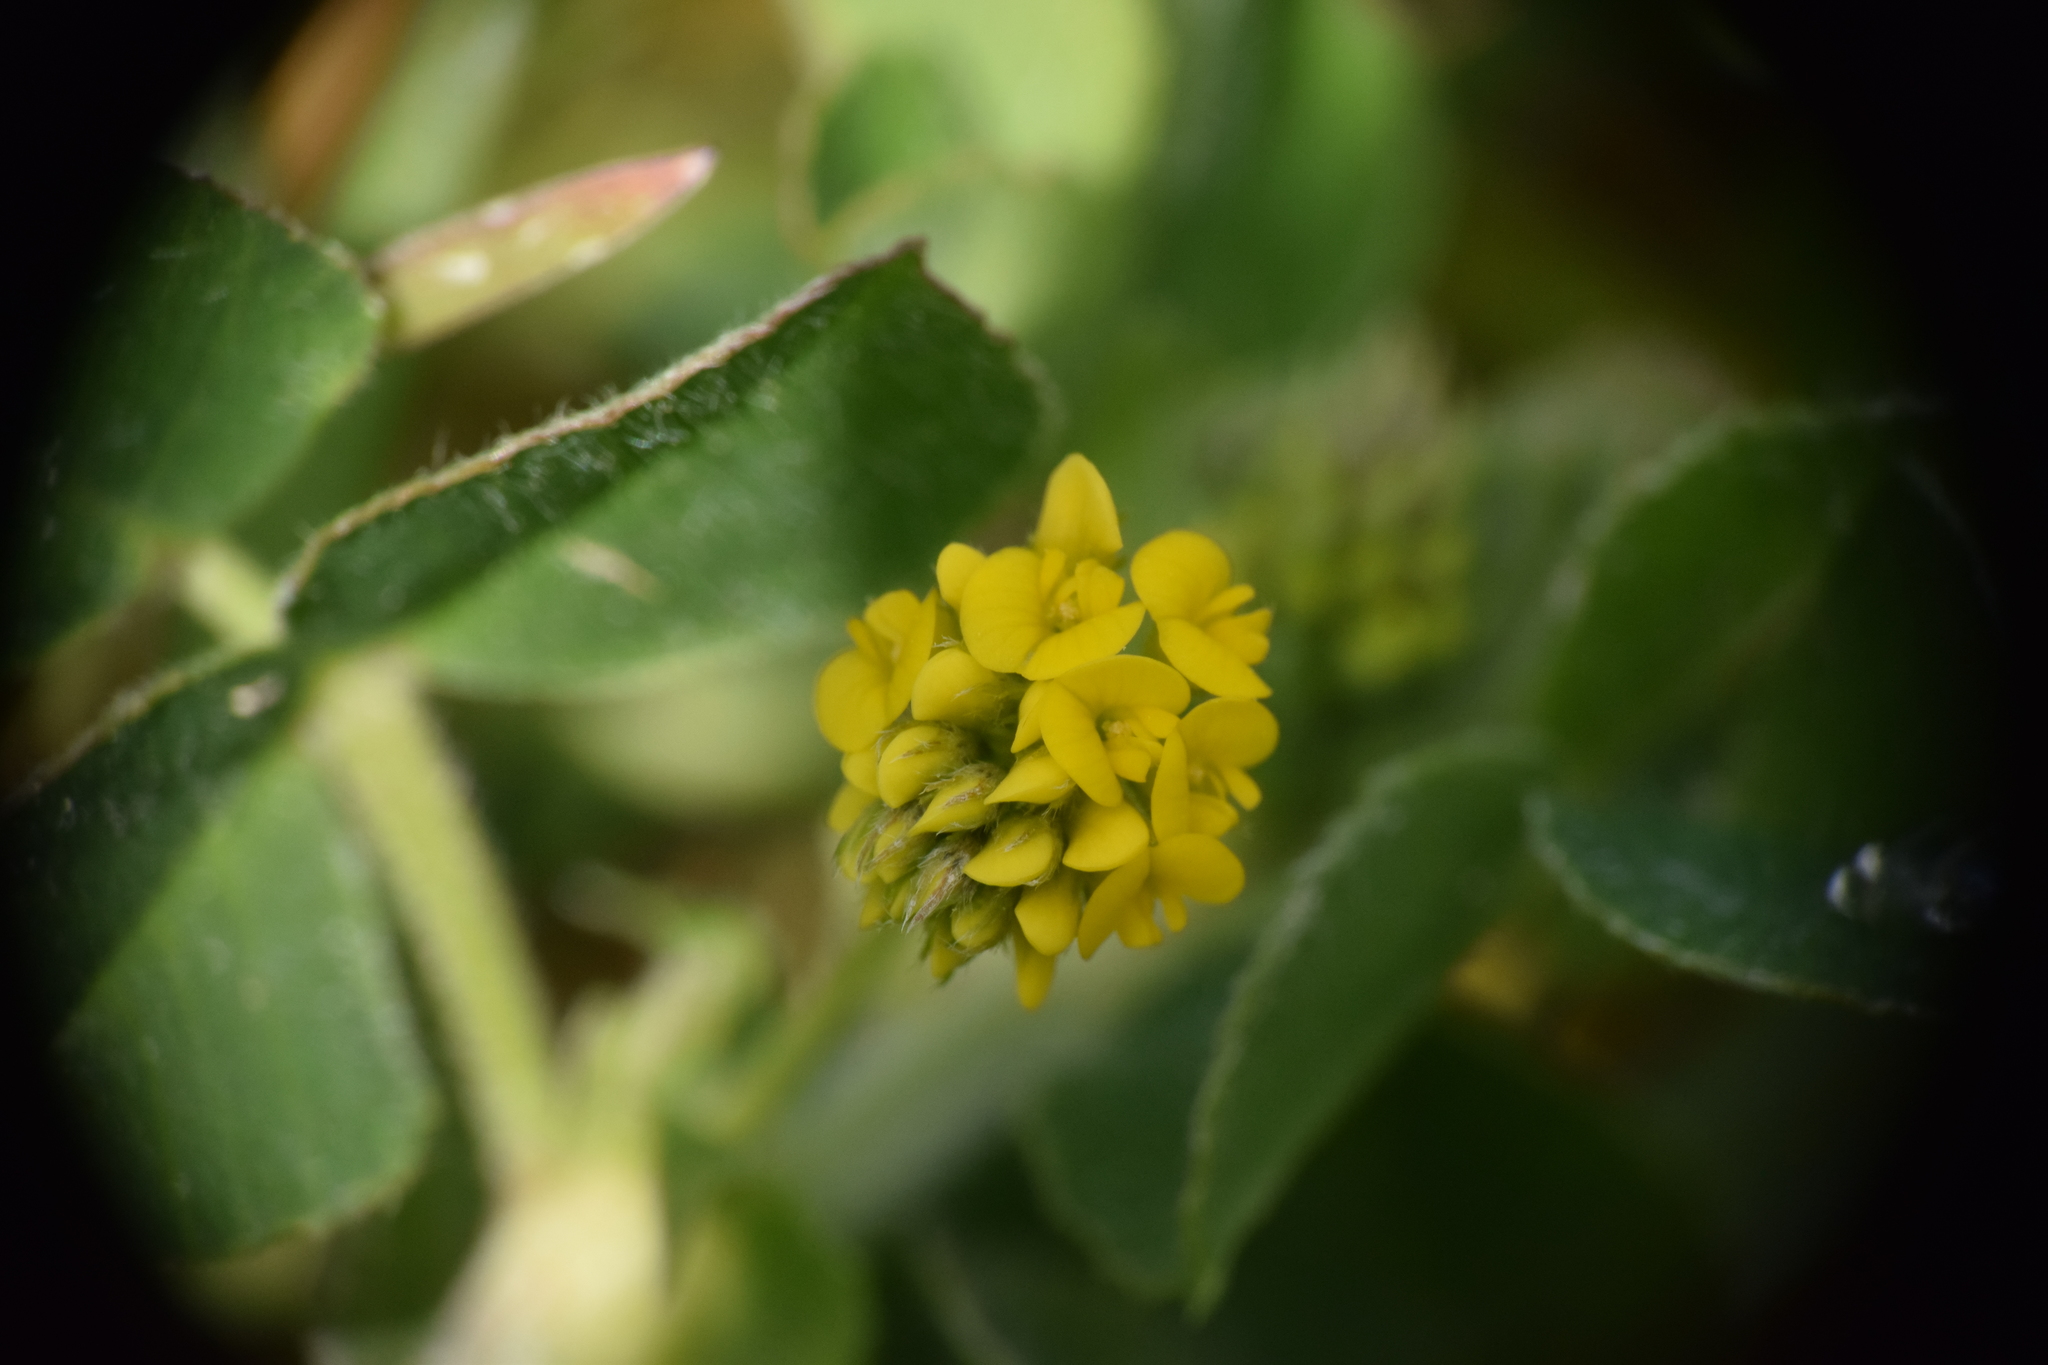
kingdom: Plantae
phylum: Tracheophyta
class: Magnoliopsida
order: Fabales
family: Fabaceae
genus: Medicago
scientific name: Medicago lupulina
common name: Black medick
